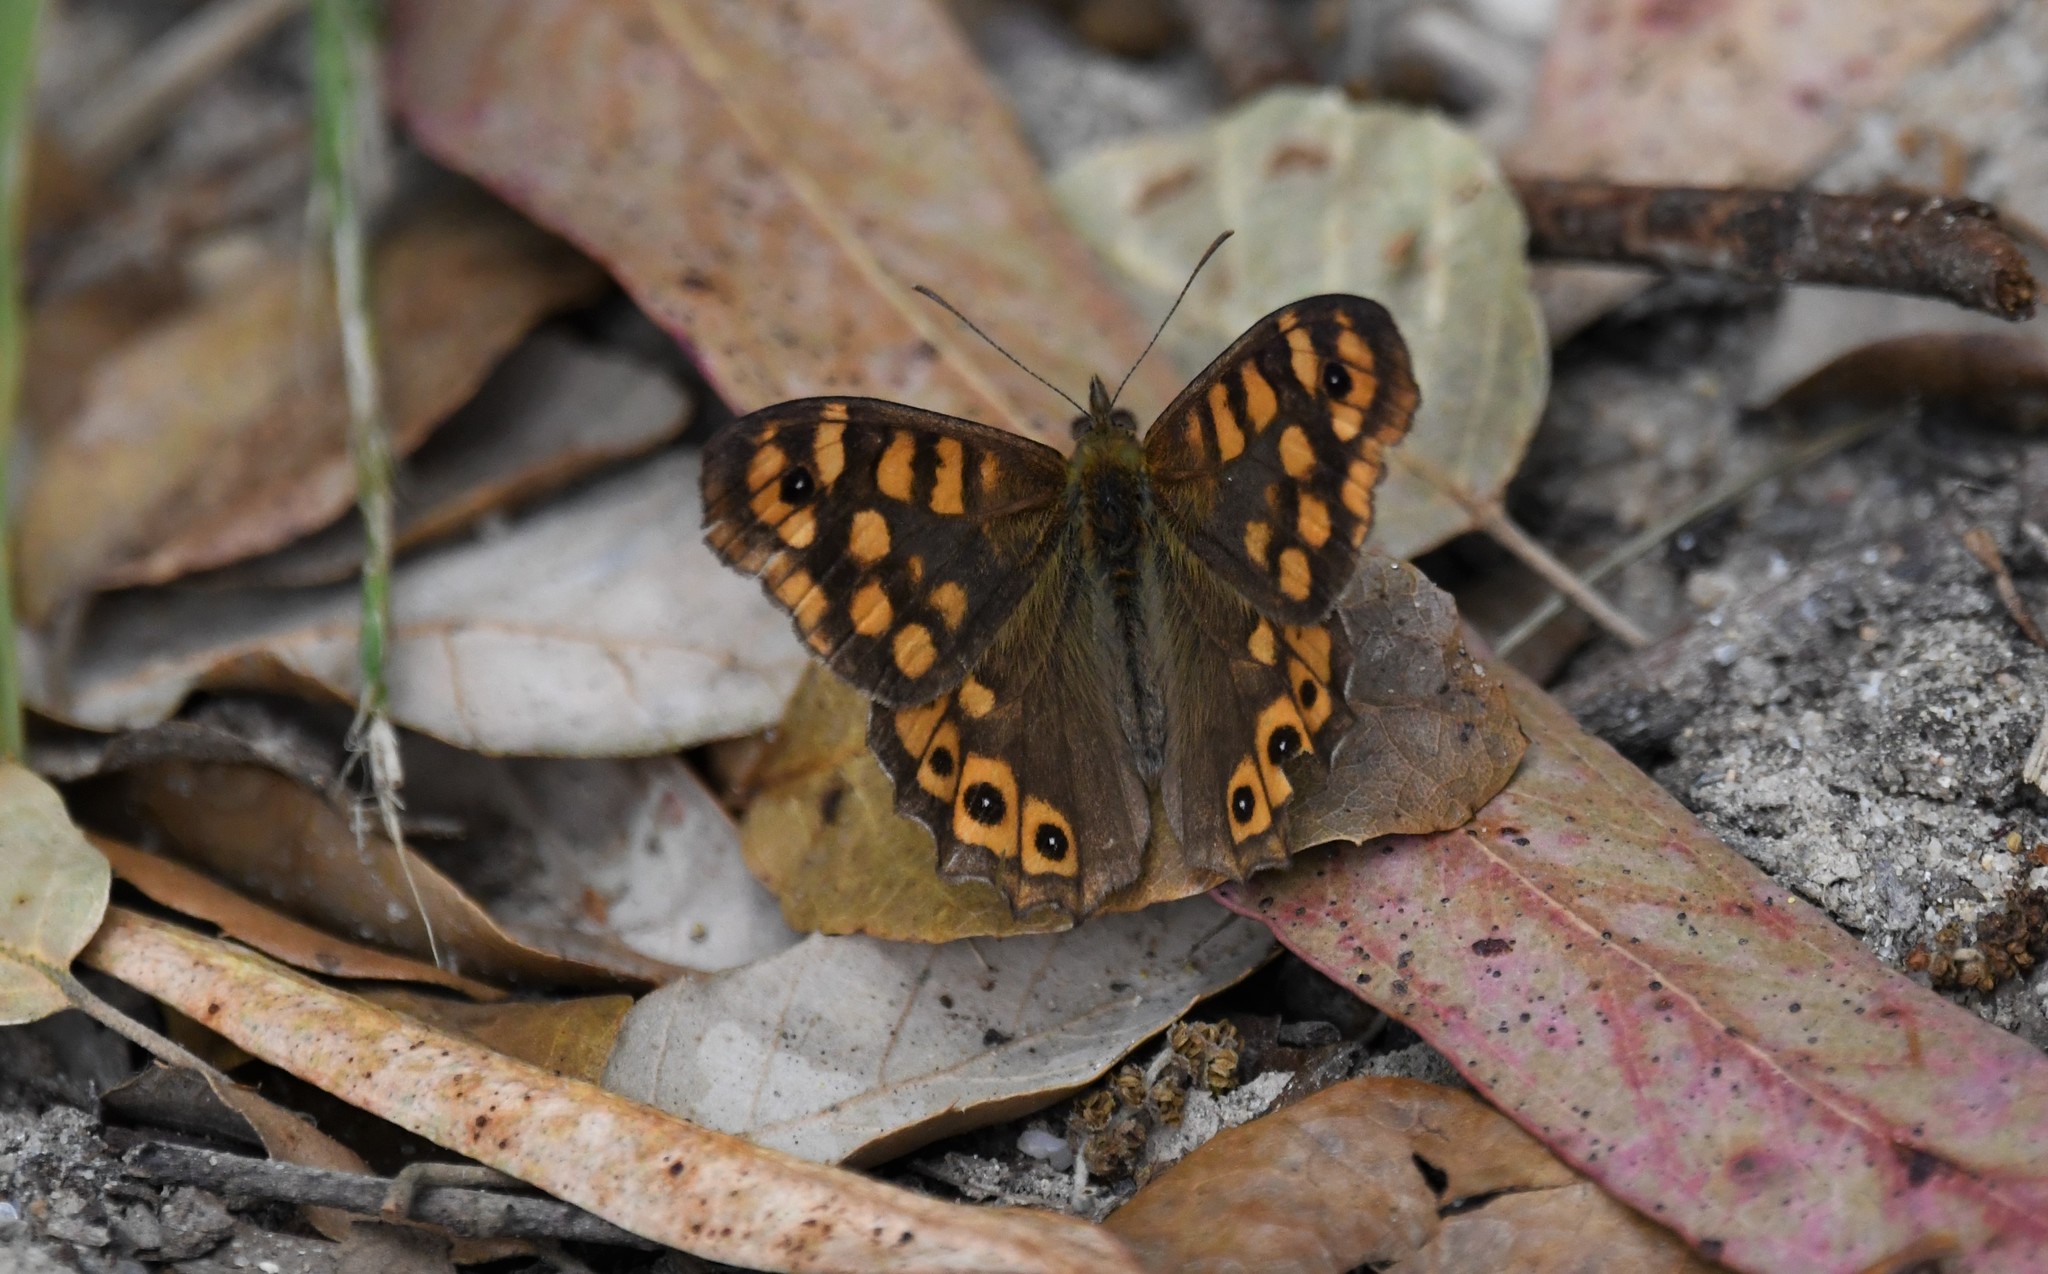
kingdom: Animalia
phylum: Arthropoda
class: Insecta
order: Lepidoptera
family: Nymphalidae
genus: Pararge
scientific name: Pararge aegeria
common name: Speckled wood
